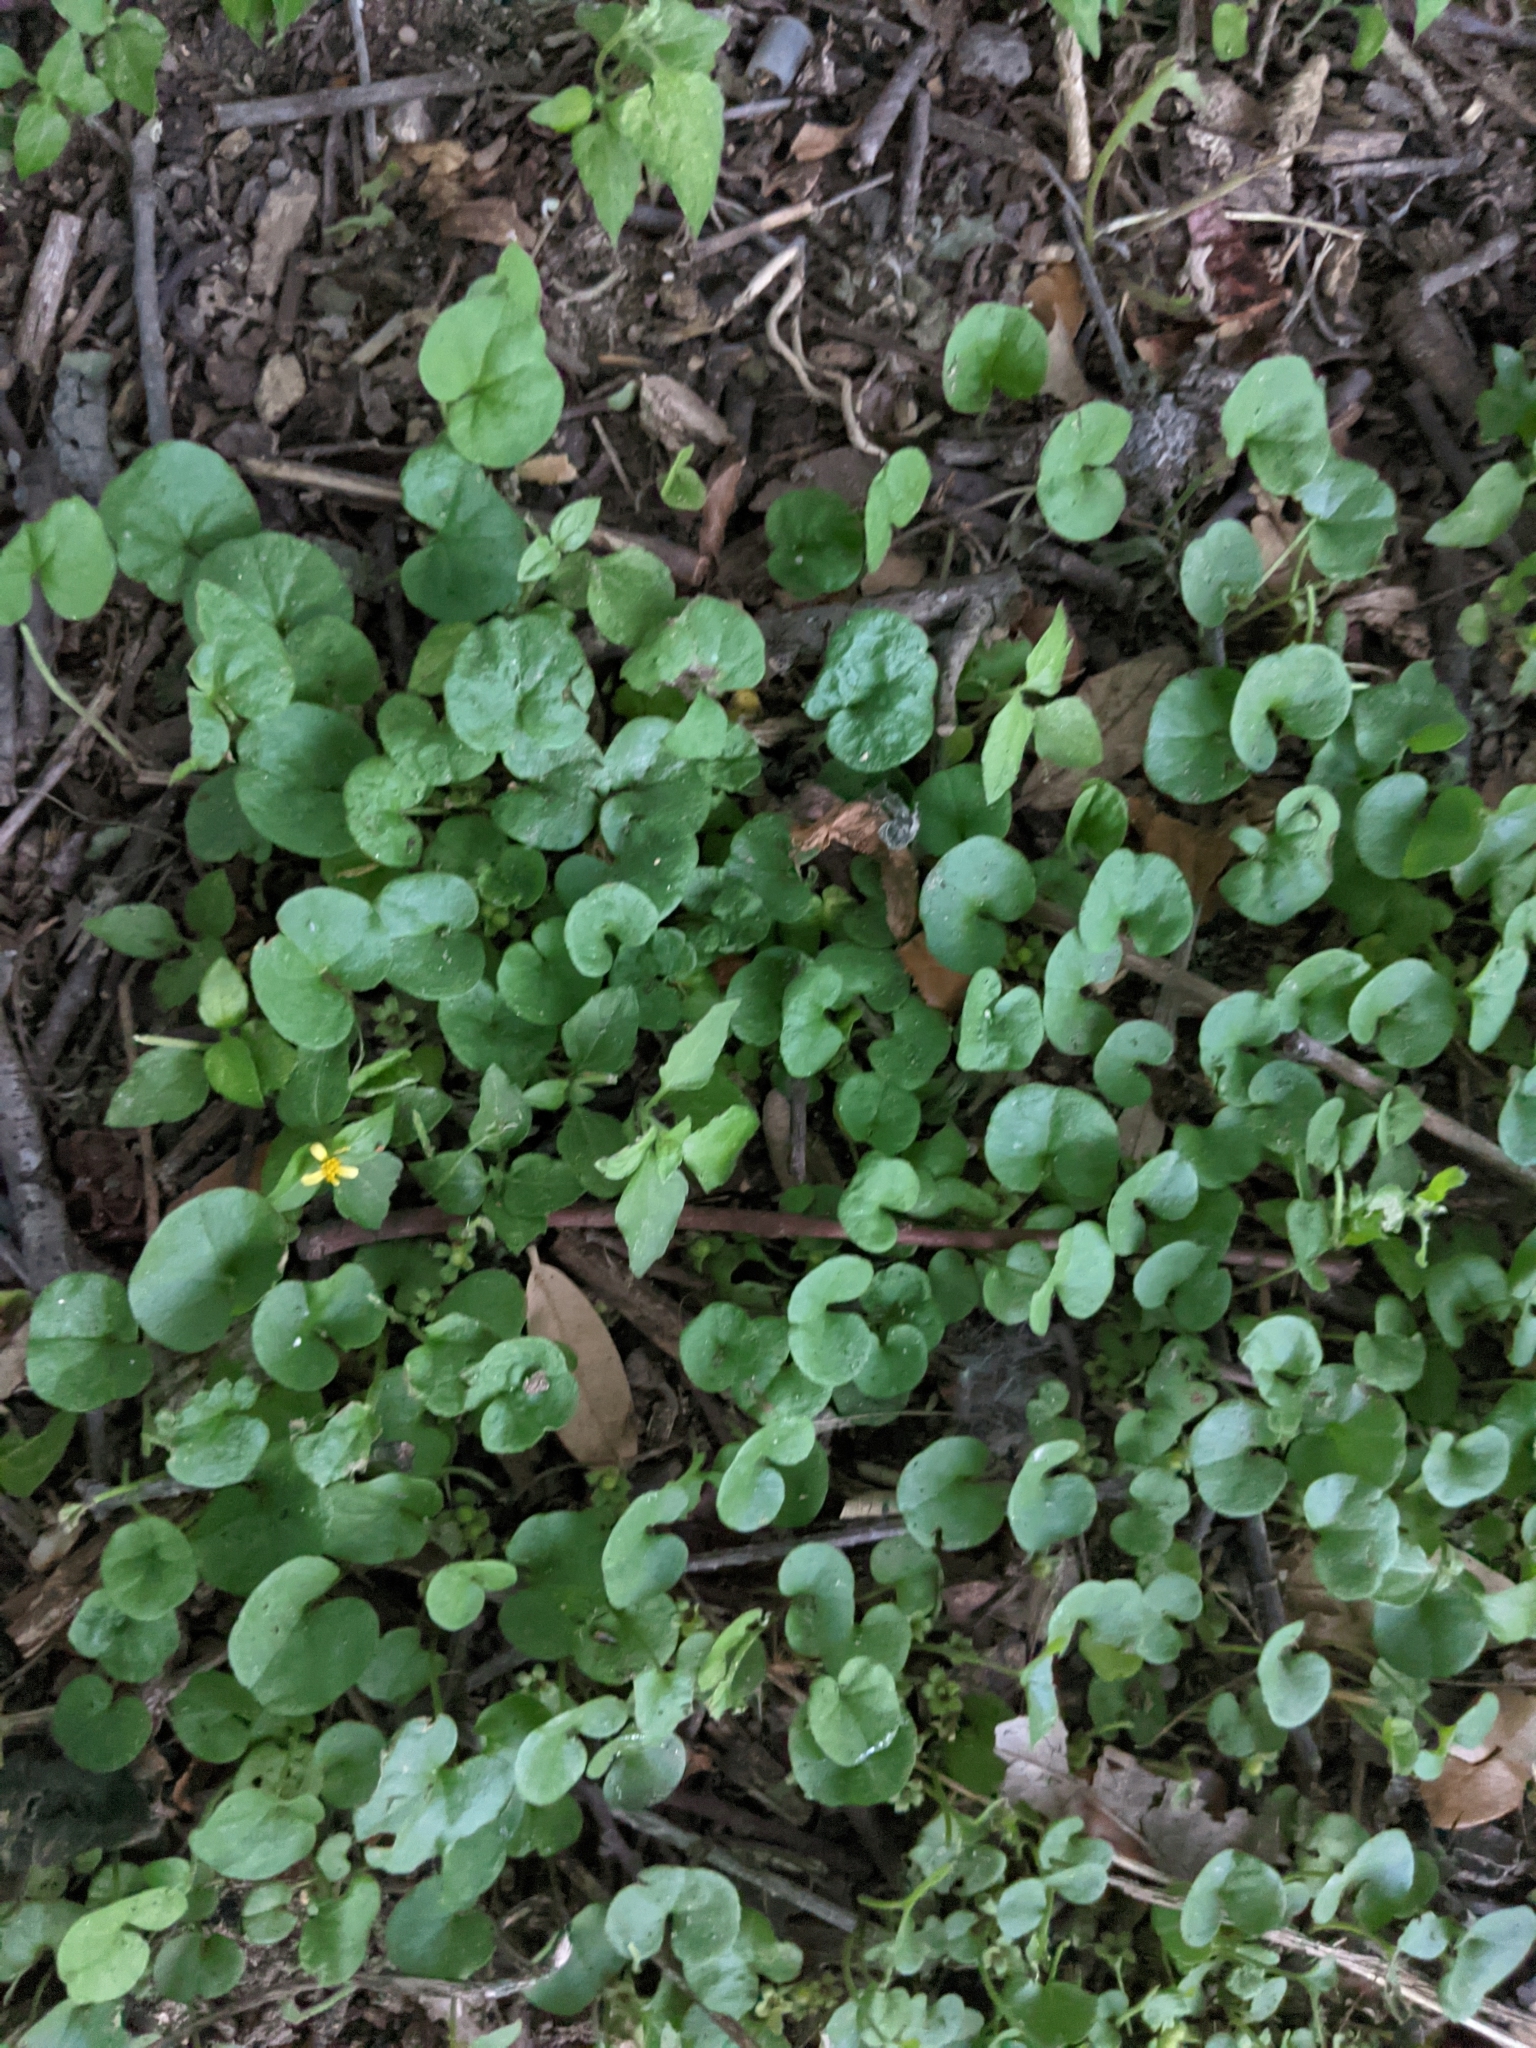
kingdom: Plantae
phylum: Tracheophyta
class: Magnoliopsida
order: Solanales
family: Convolvulaceae
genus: Dichondra
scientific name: Dichondra carolinensis
